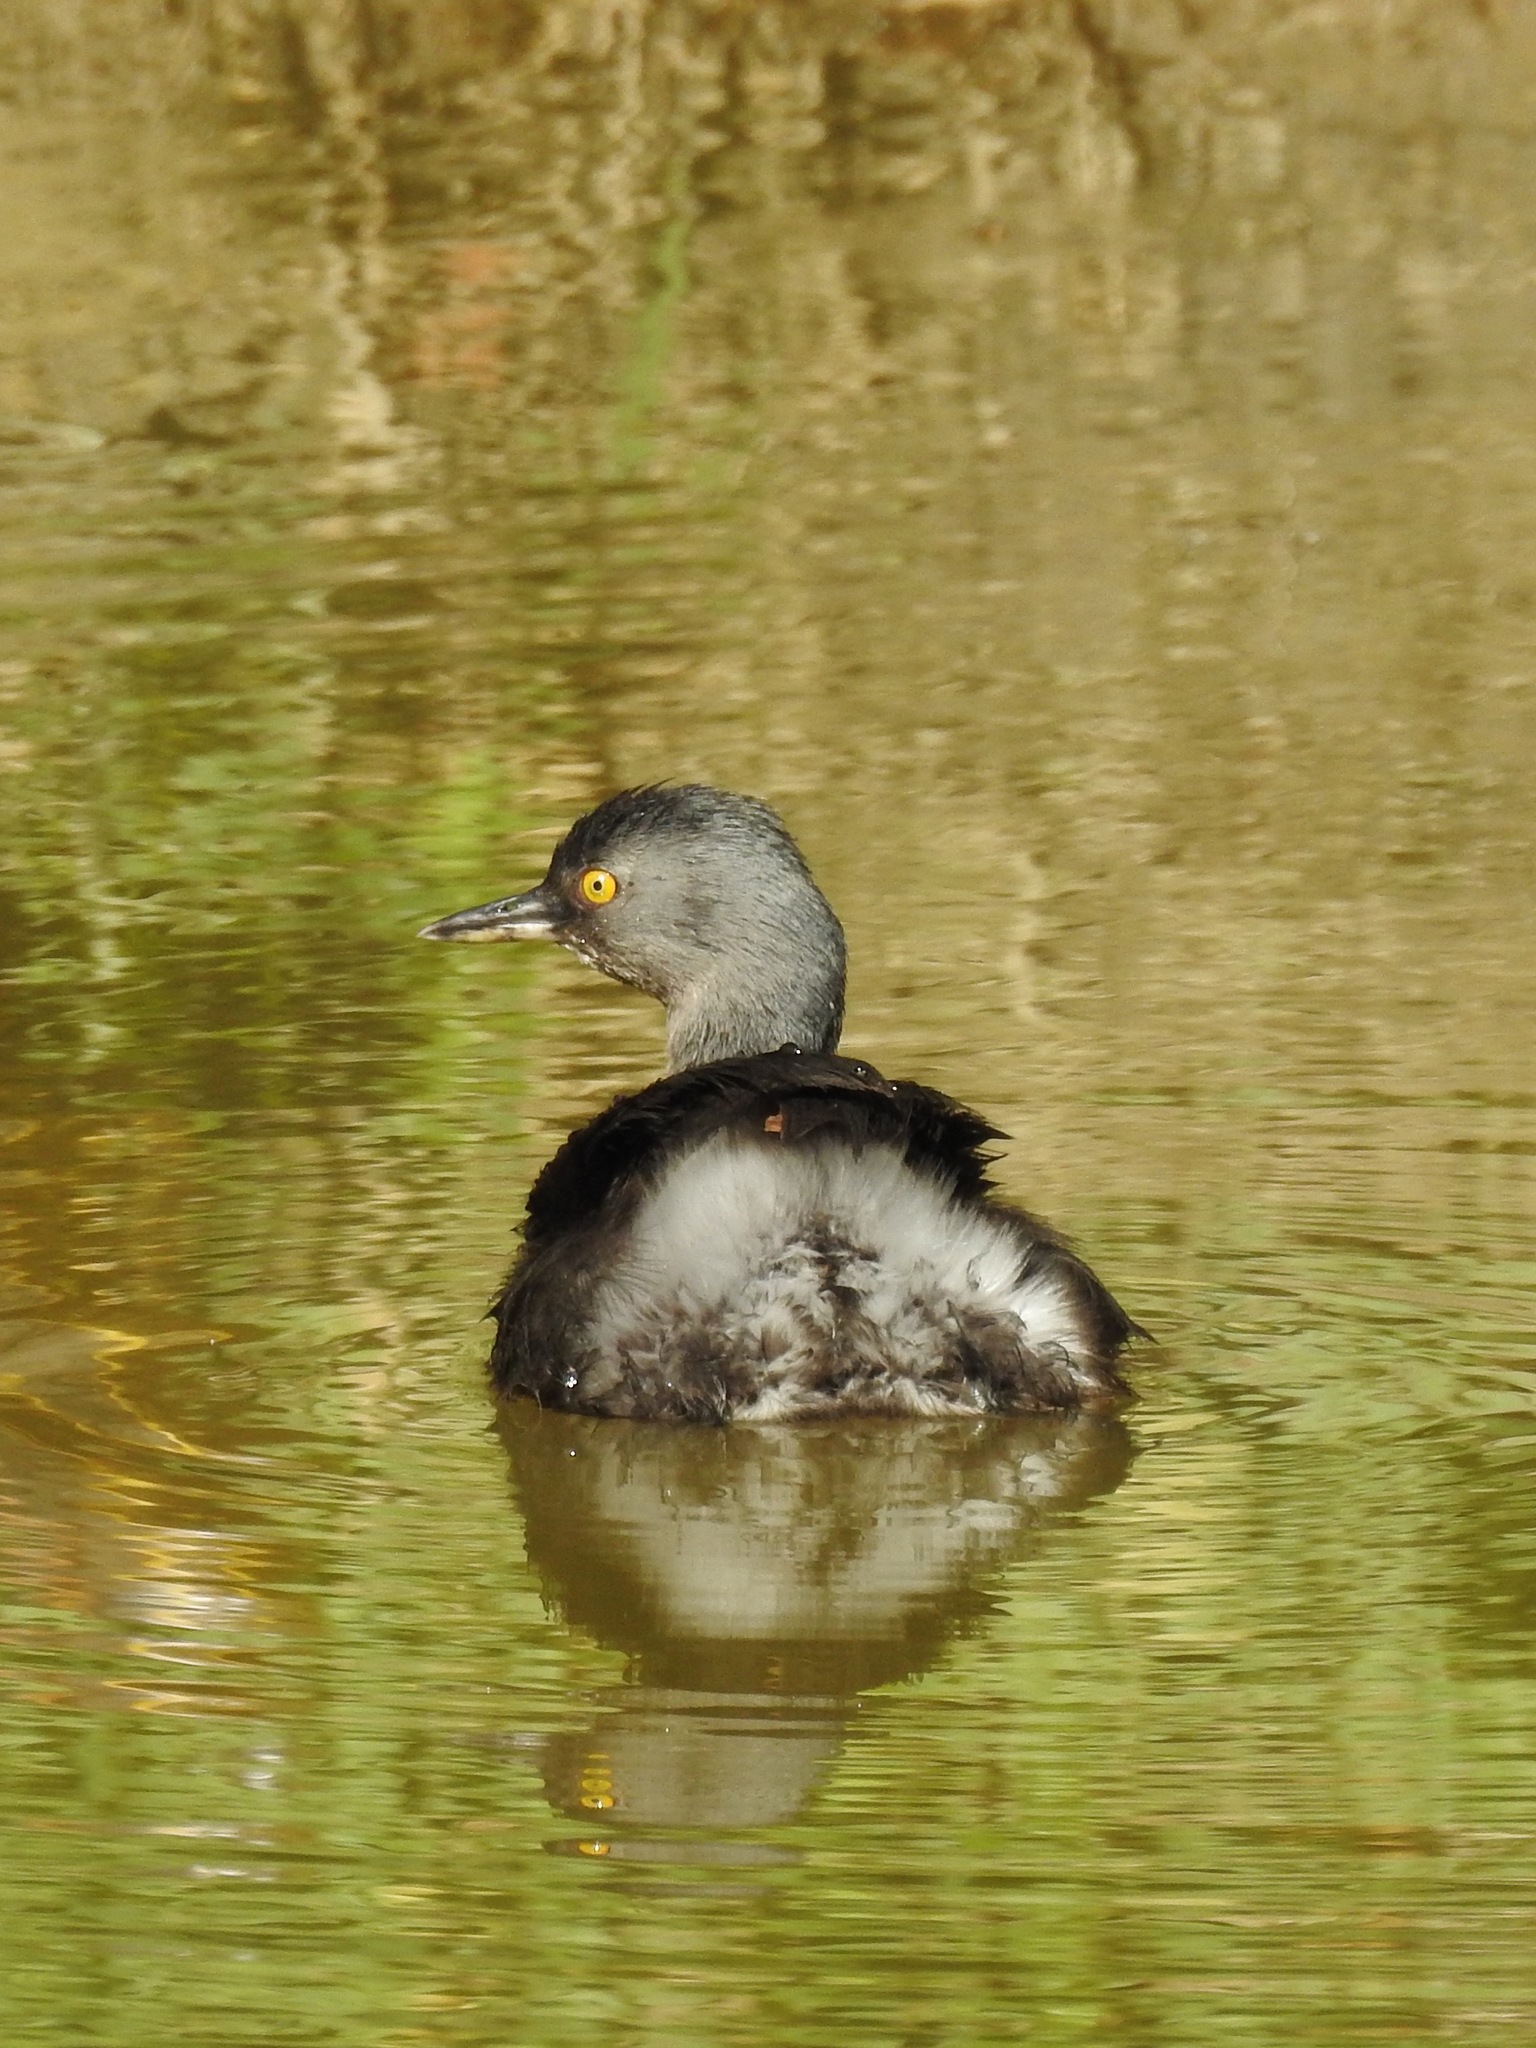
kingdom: Animalia
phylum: Chordata
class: Aves
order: Podicipediformes
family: Podicipedidae
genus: Tachybaptus
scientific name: Tachybaptus dominicus
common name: Least grebe
